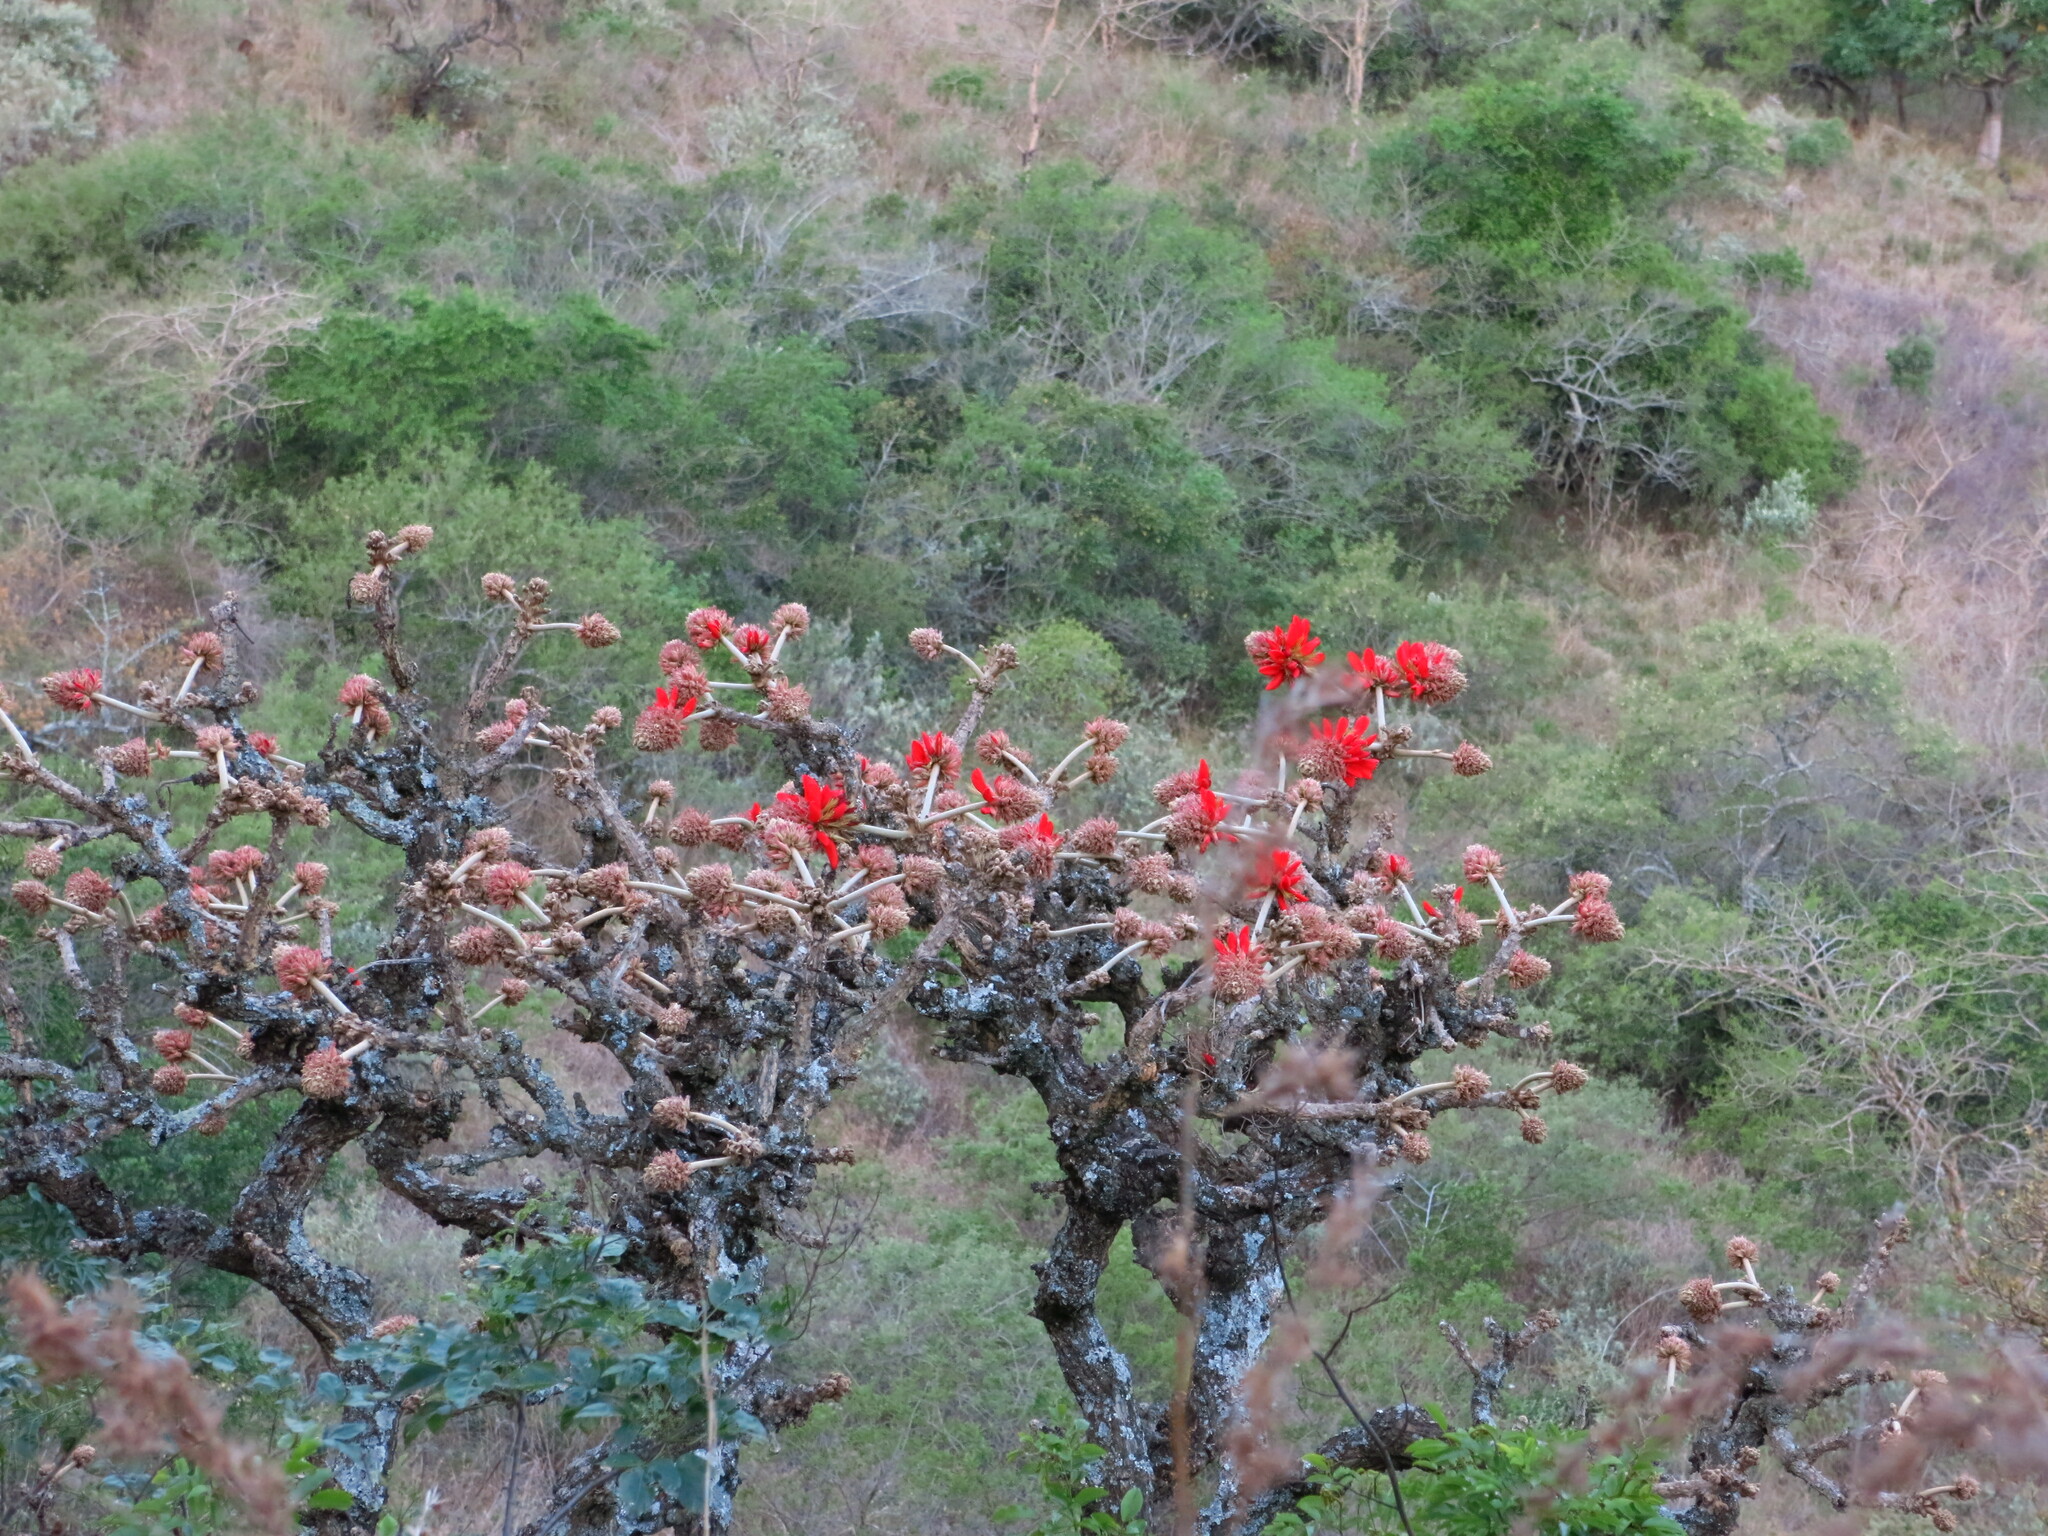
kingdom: Plantae
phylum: Tracheophyta
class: Magnoliopsida
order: Fabales
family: Fabaceae
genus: Erythrina
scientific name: Erythrina latissima
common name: Broad-leaved coral tree
